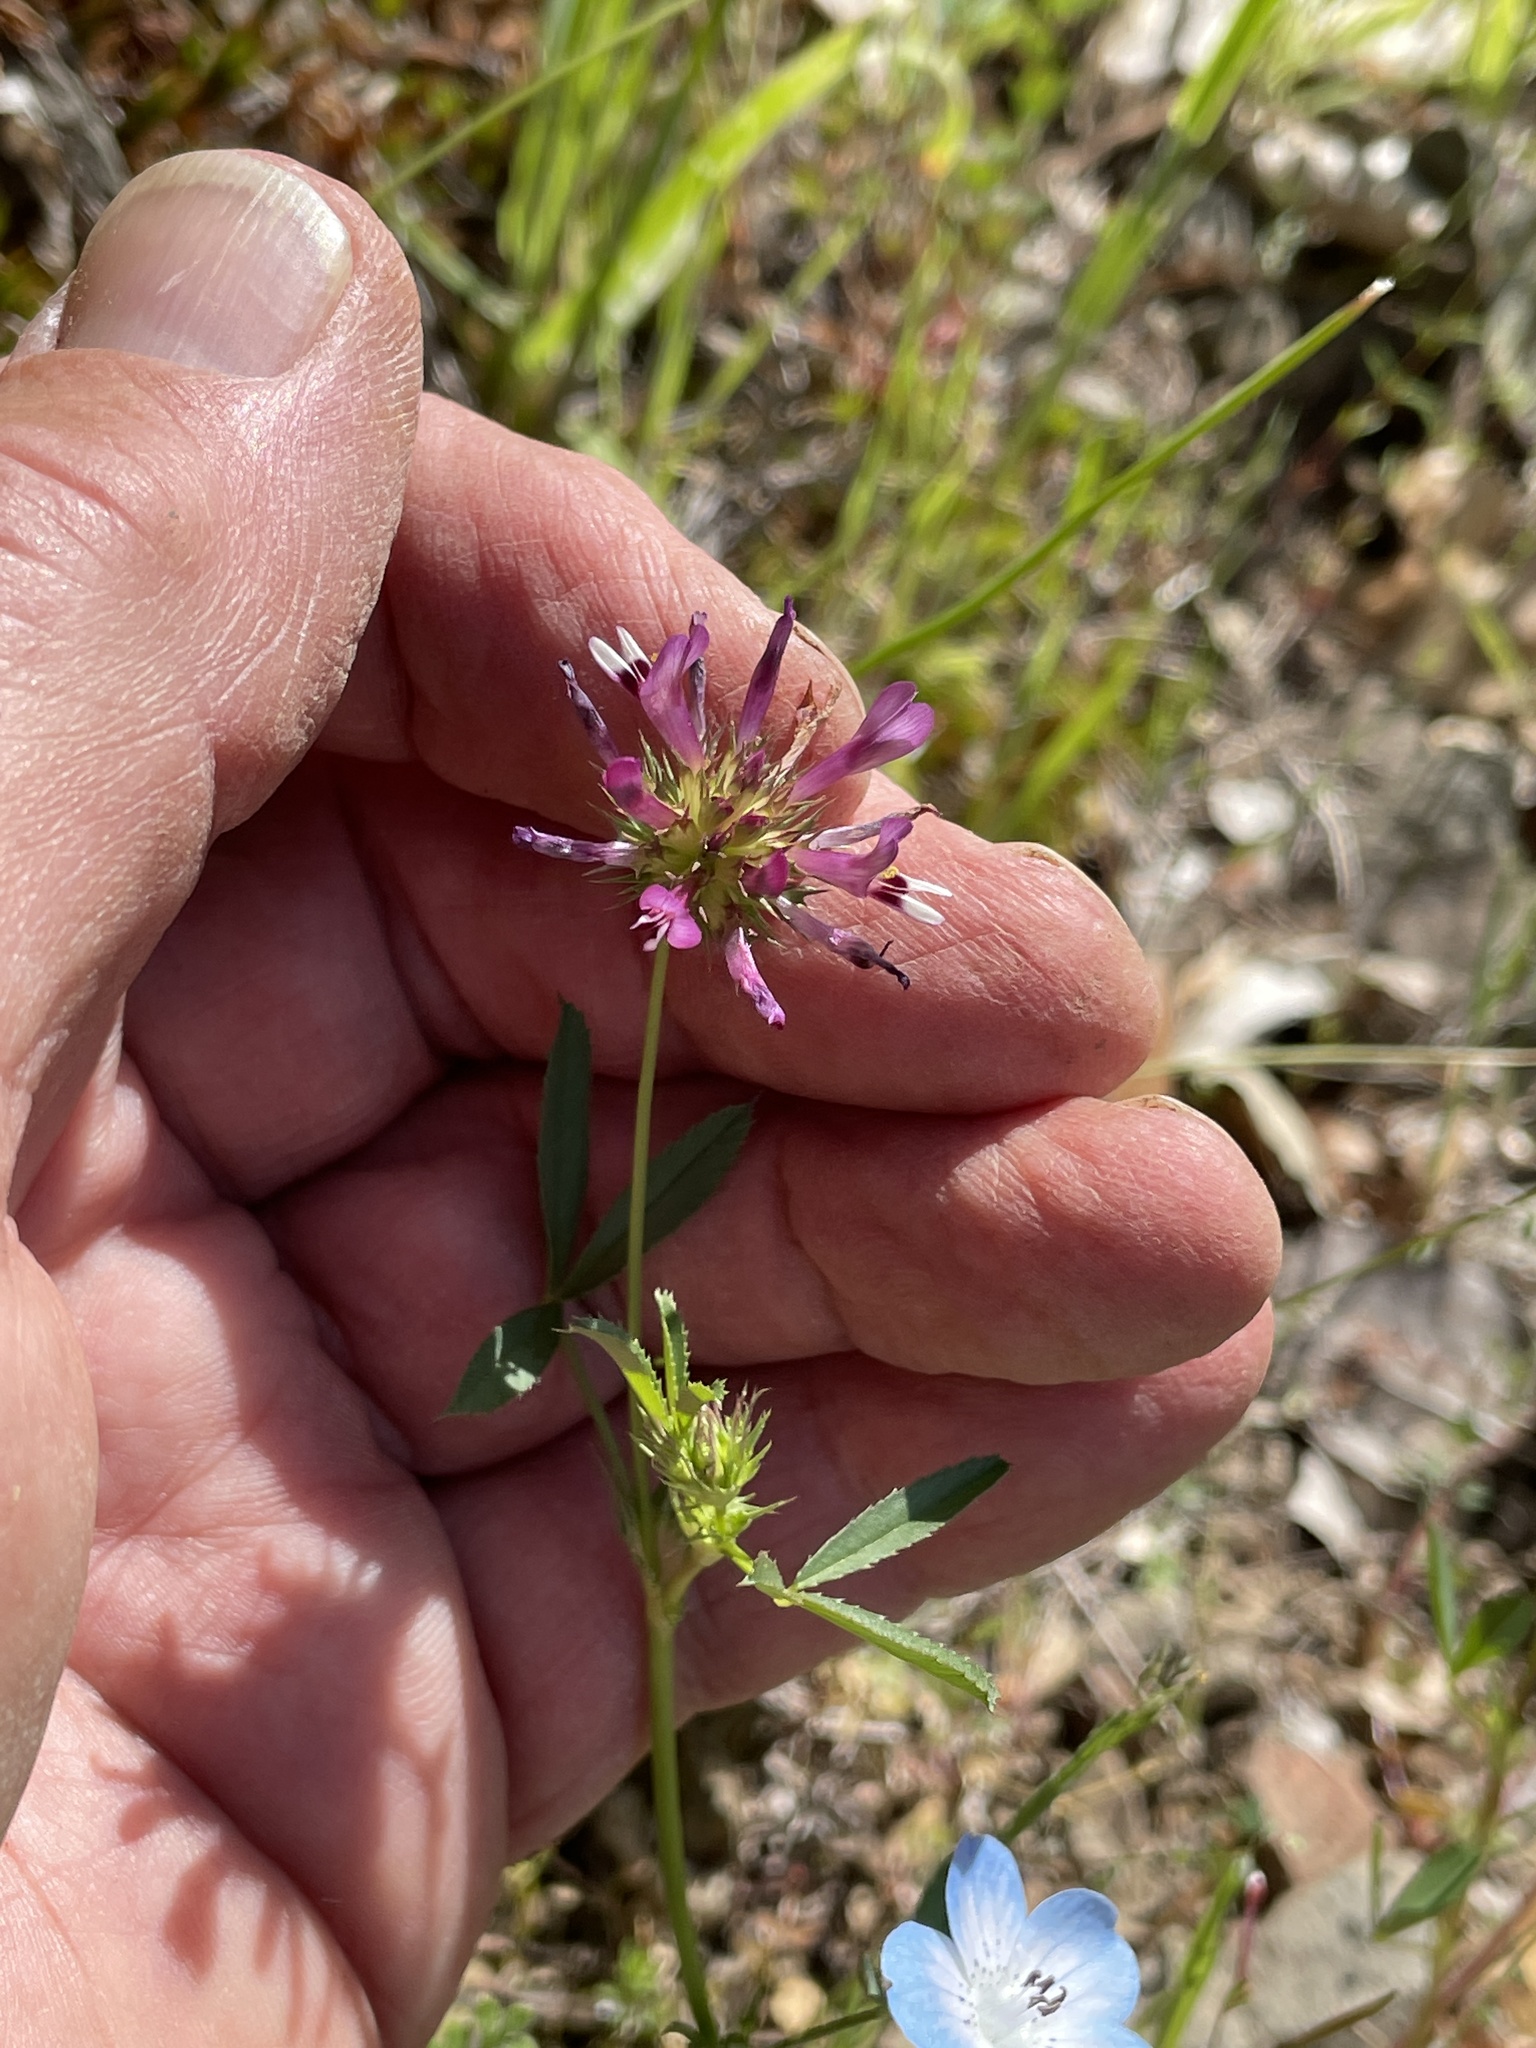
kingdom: Plantae
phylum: Tracheophyta
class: Magnoliopsida
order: Fabales
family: Fabaceae
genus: Trifolium
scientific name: Trifolium willdenovii
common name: Tomcat clover
